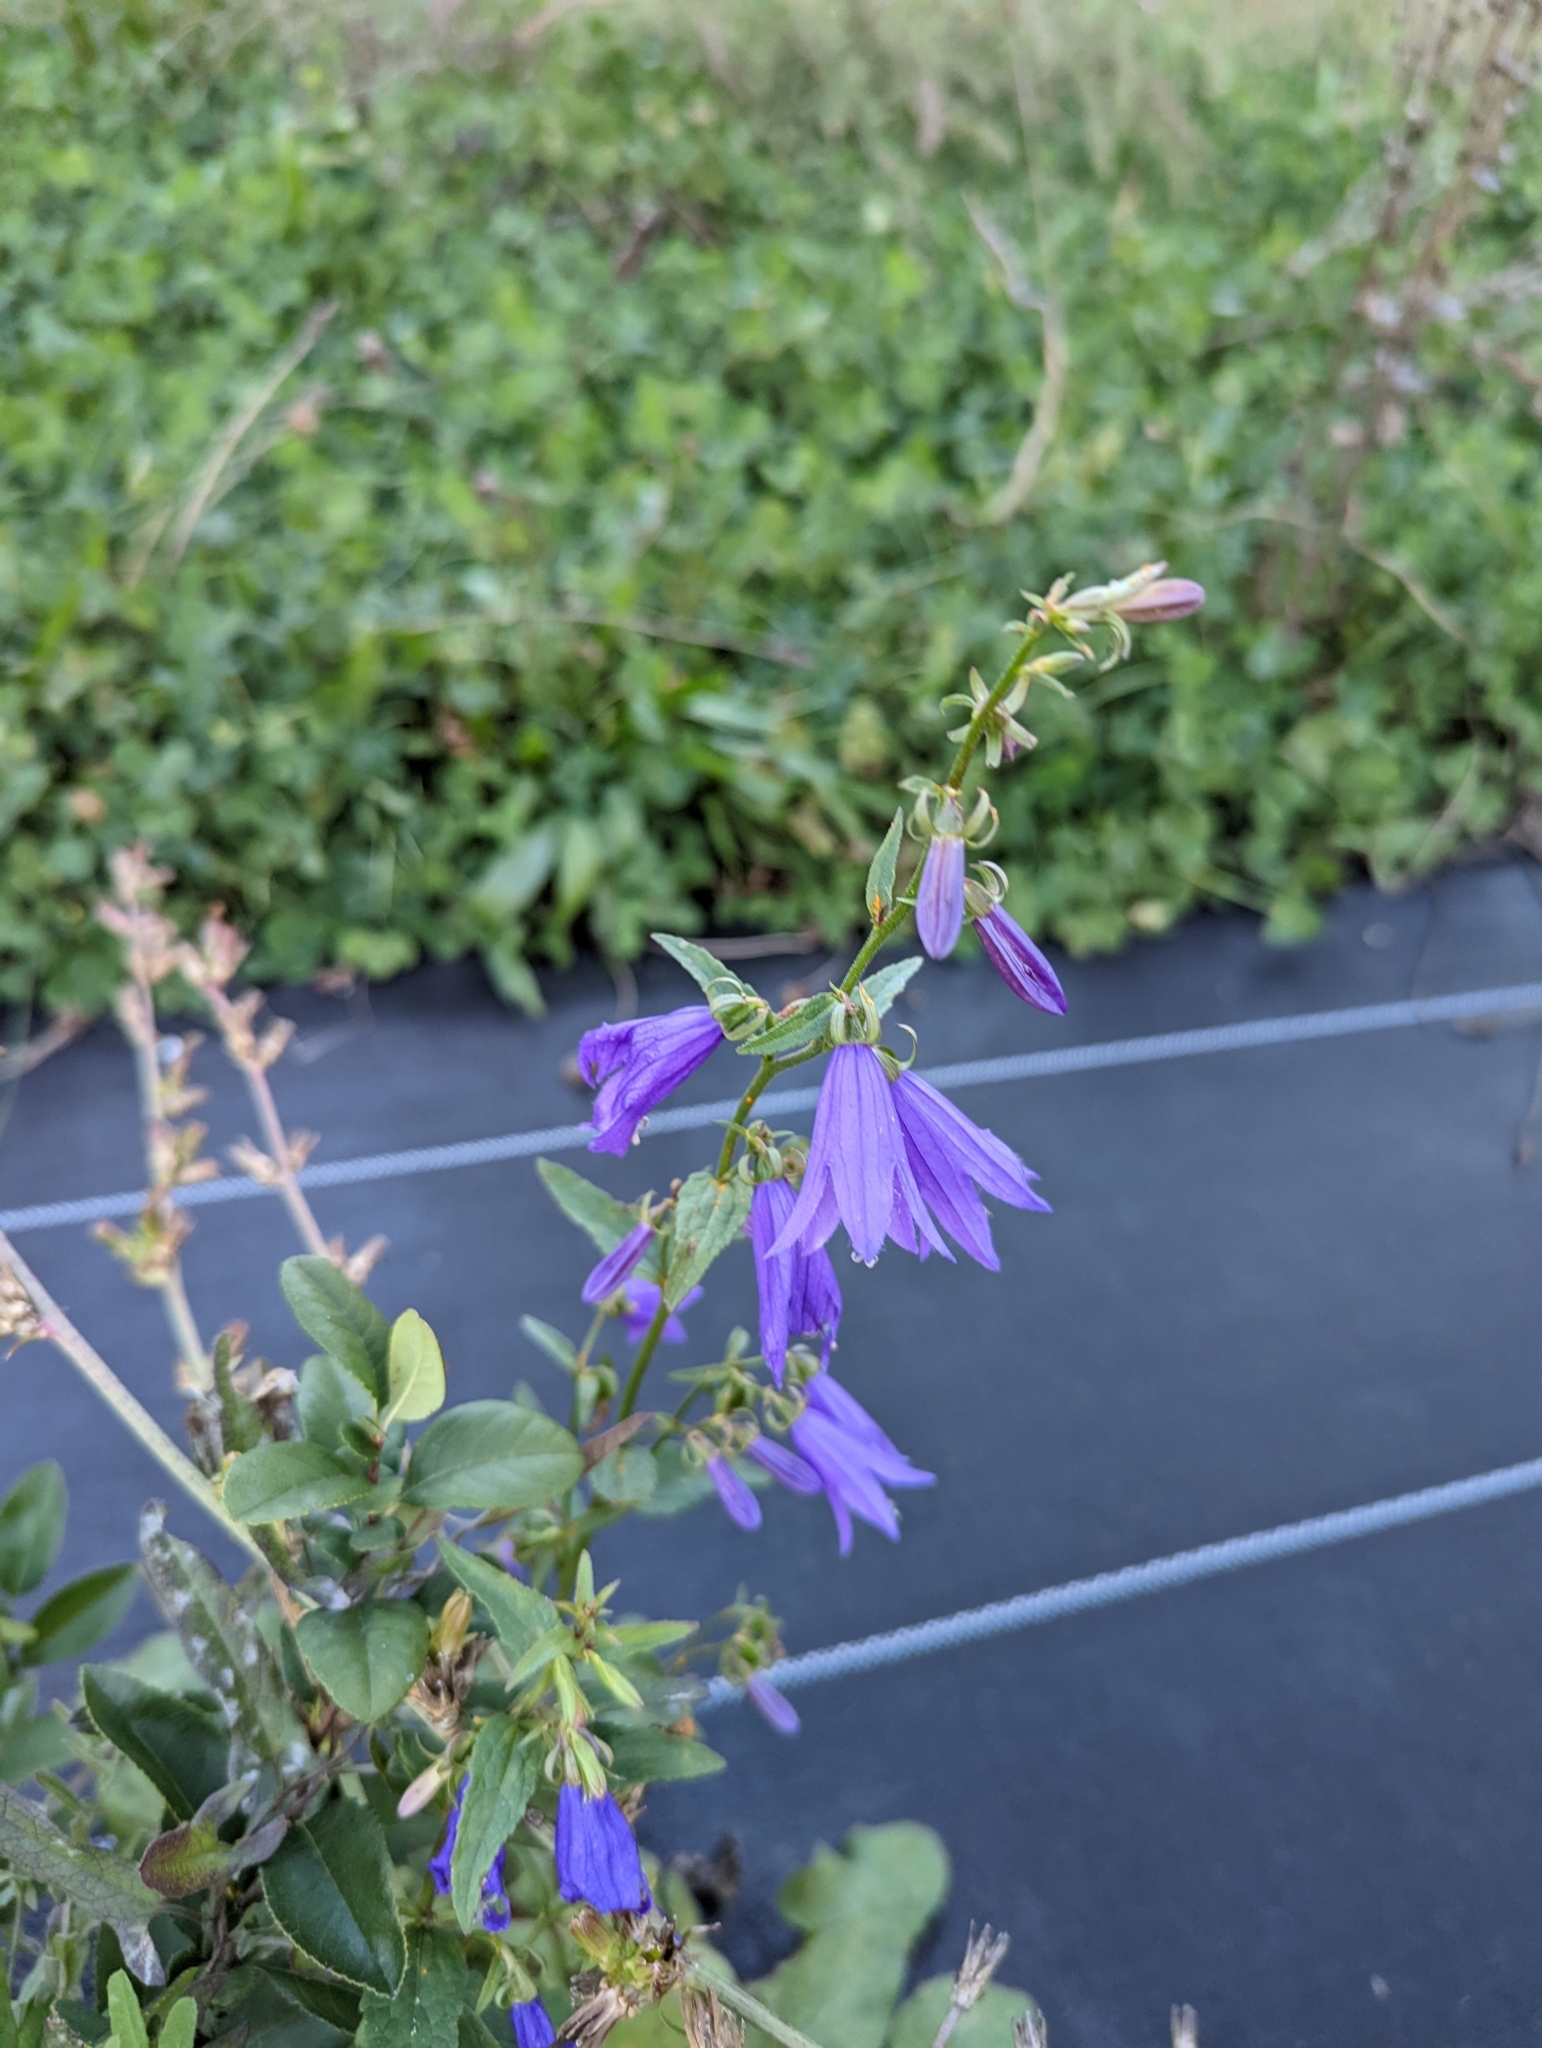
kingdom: Plantae
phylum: Tracheophyta
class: Magnoliopsida
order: Asterales
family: Campanulaceae
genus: Campanula
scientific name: Campanula rapunculoides
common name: Creeping bellflower
